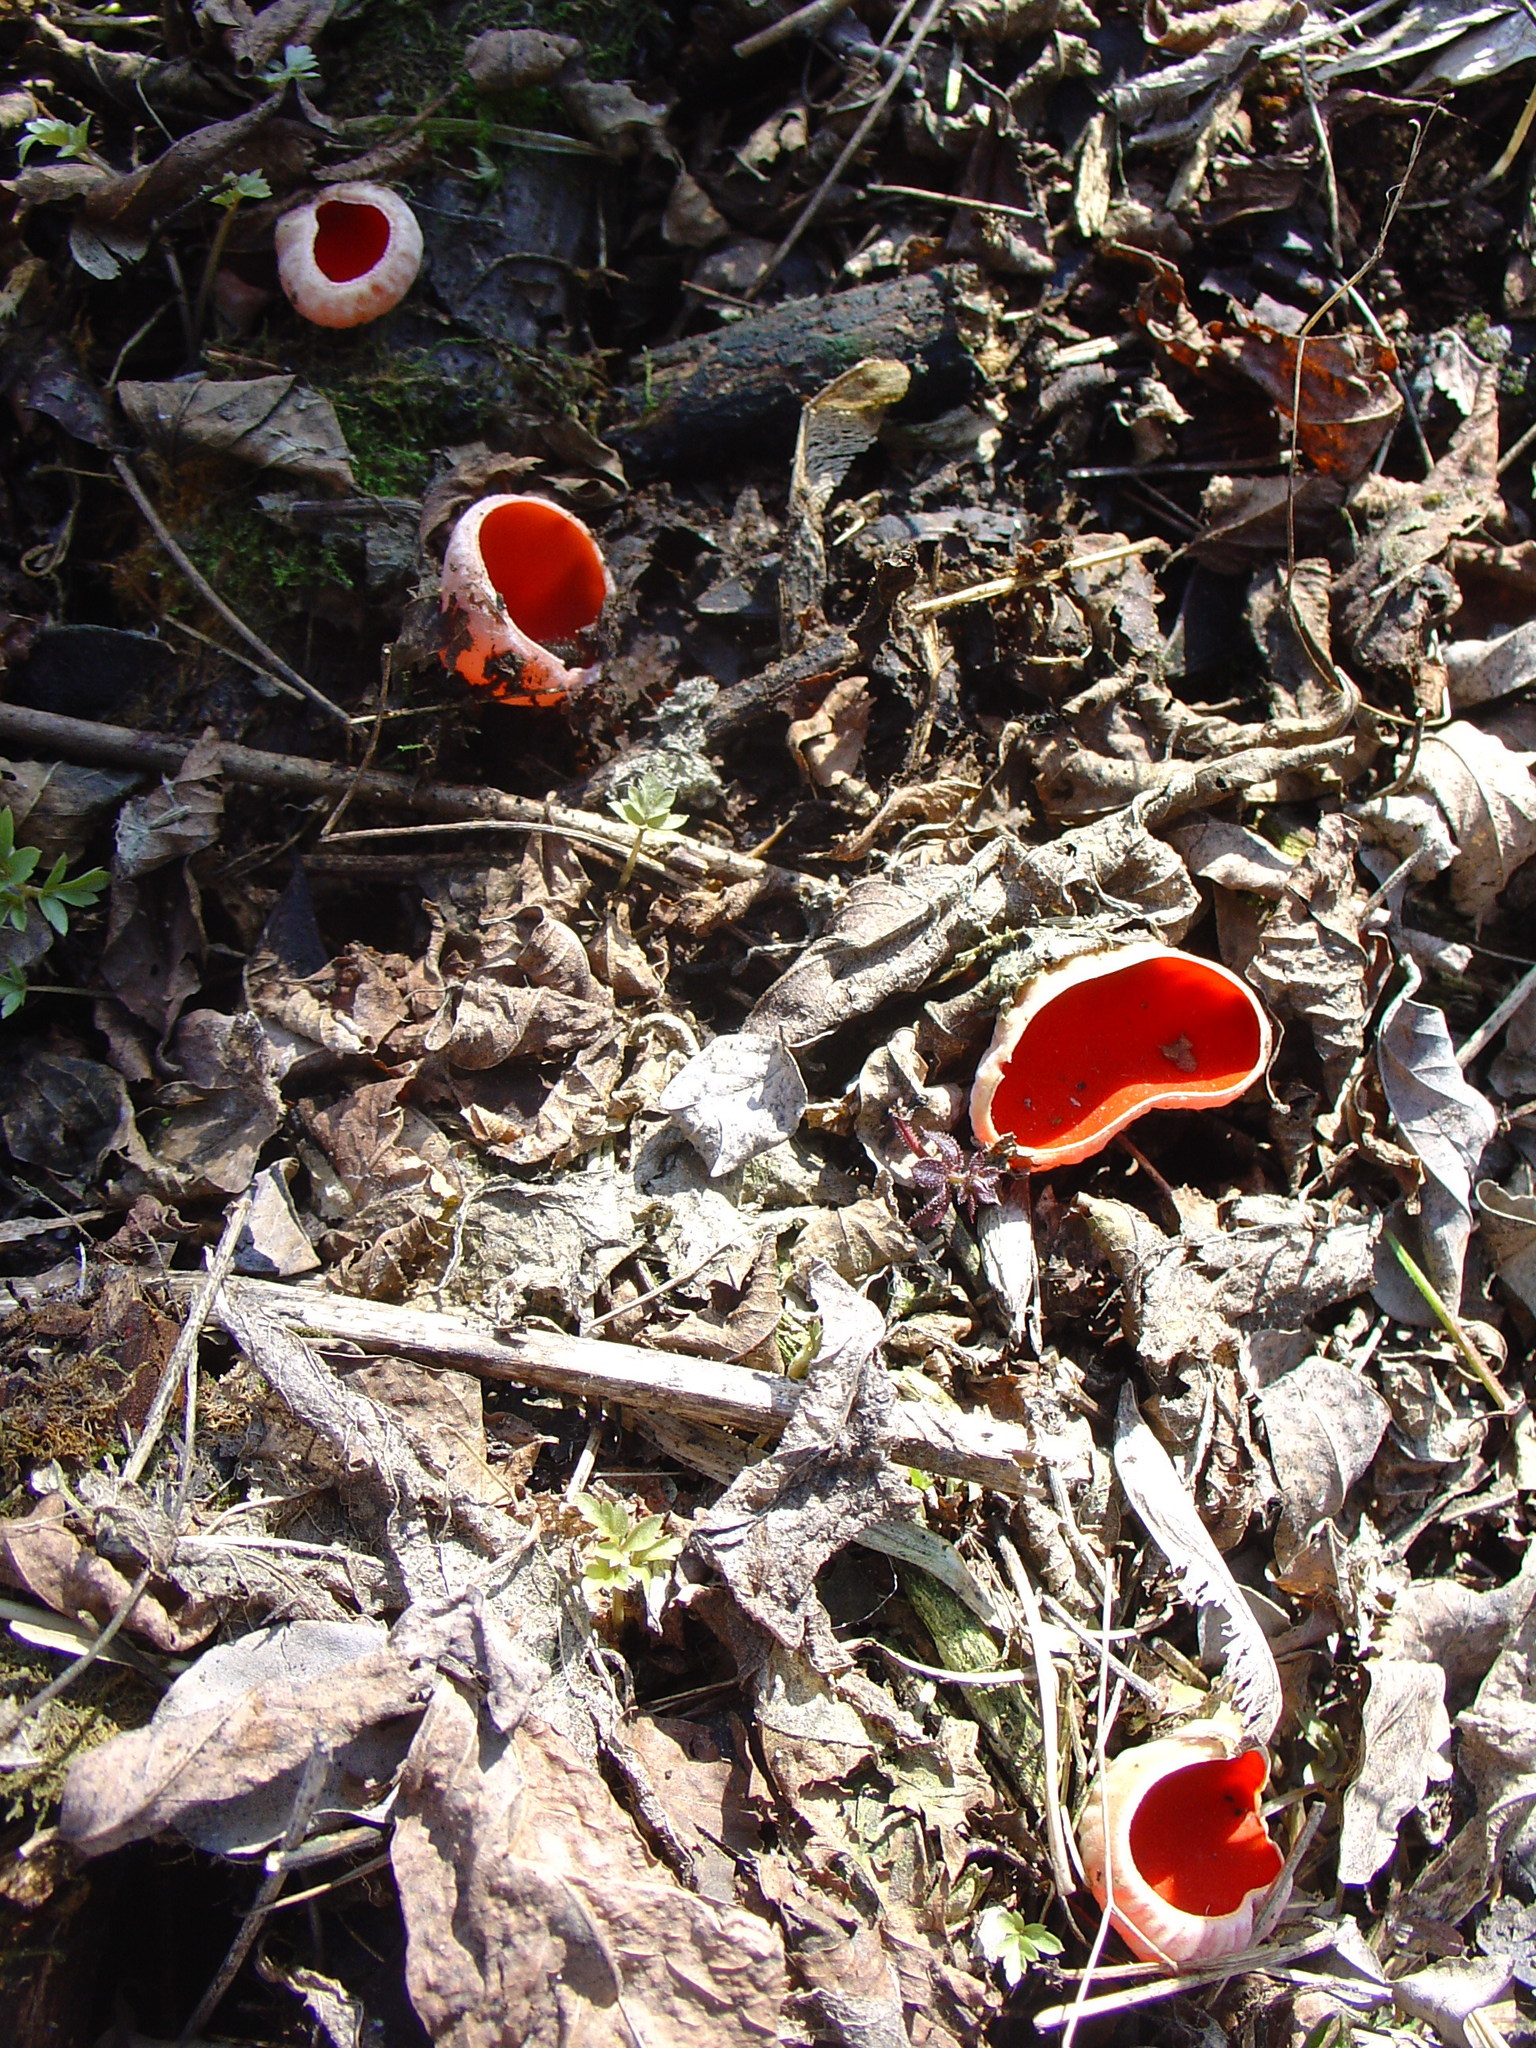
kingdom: Fungi
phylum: Ascomycota
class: Pezizomycetes
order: Pezizales
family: Sarcoscyphaceae
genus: Sarcoscypha
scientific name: Sarcoscypha
